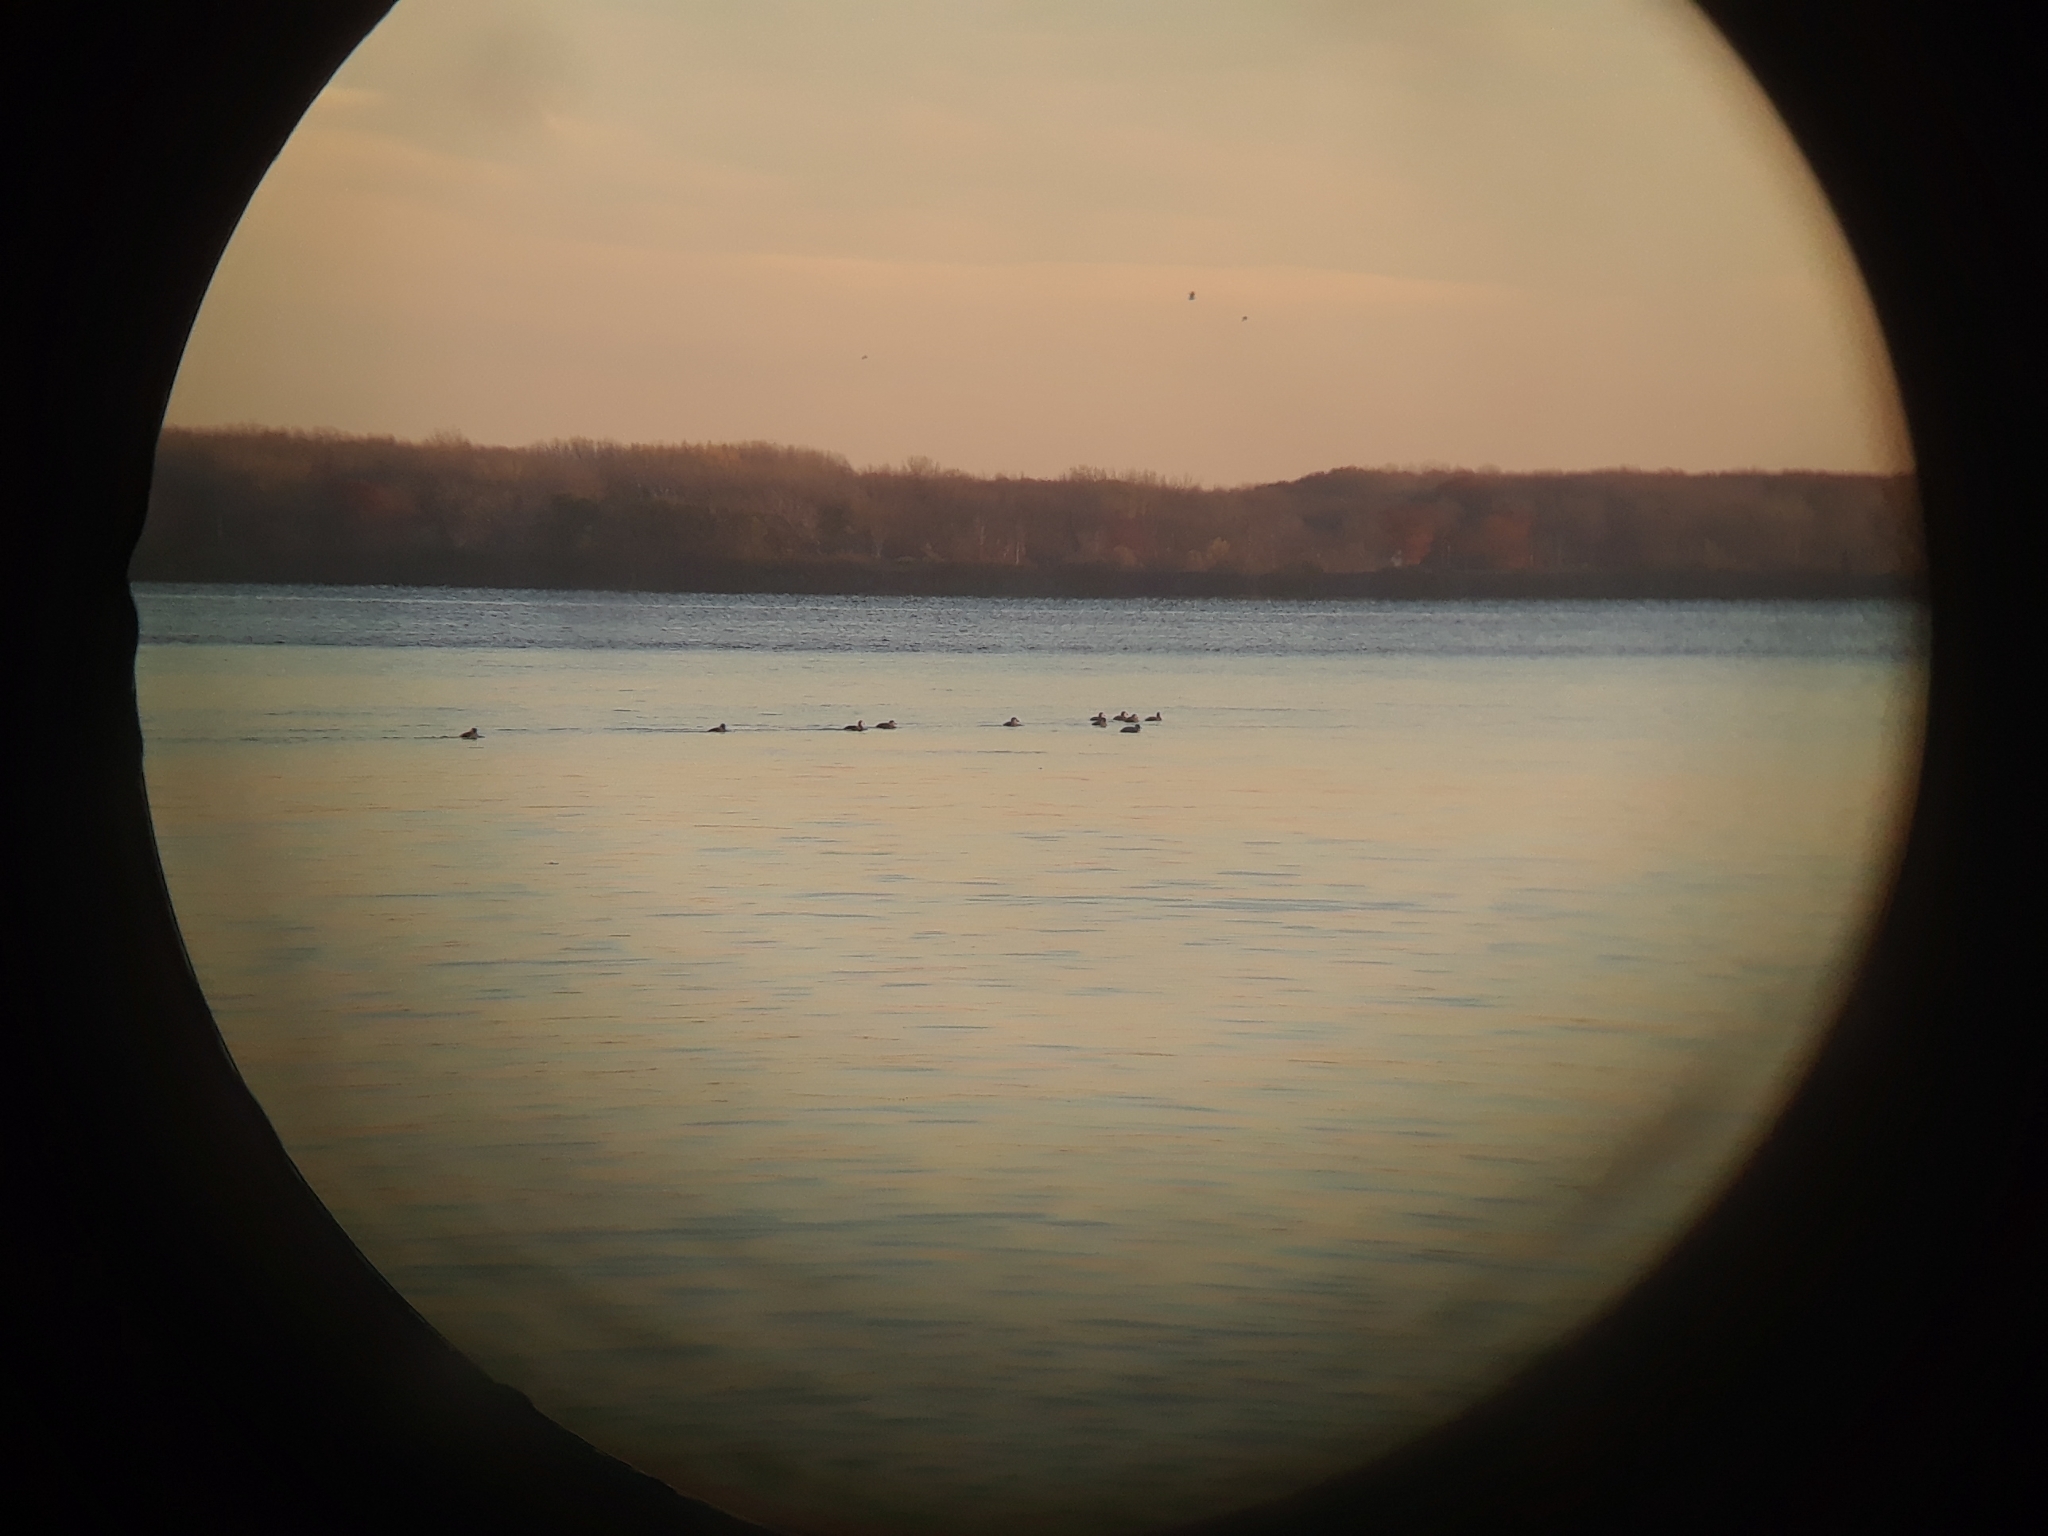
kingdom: Animalia
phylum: Chordata
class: Aves
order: Anseriformes
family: Anatidae
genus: Melanitta
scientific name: Melanitta americana
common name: Black scoter
